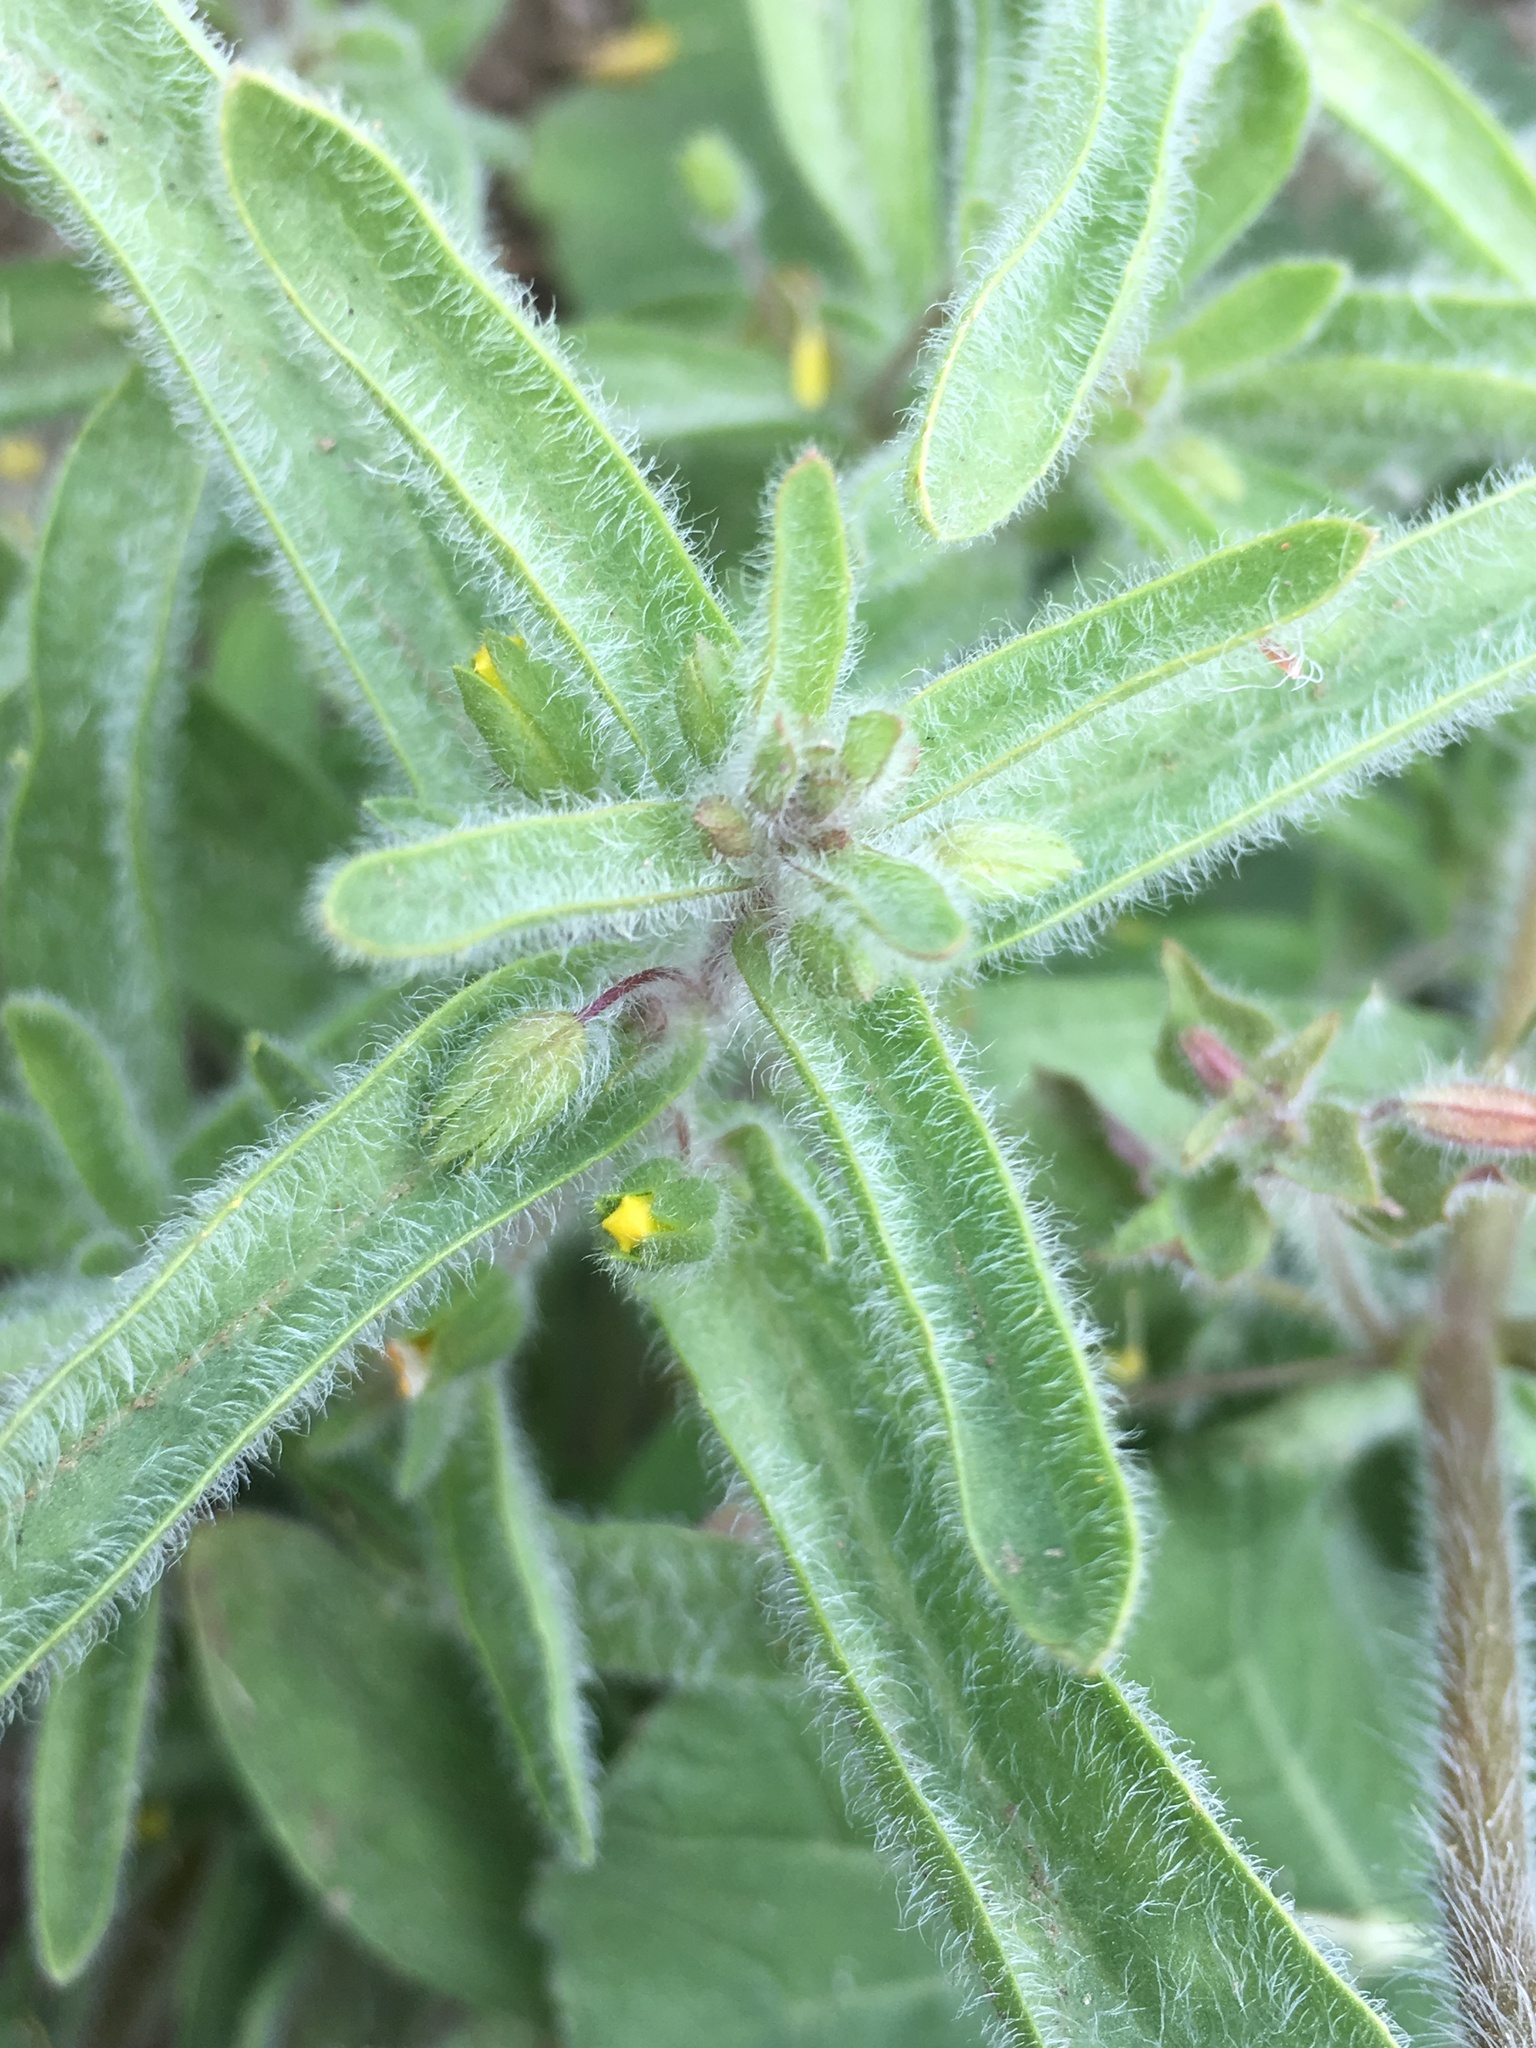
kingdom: Plantae
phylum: Tracheophyta
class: Magnoliopsida
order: Lamiales
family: Phrymaceae
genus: Mimetanthe
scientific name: Mimetanthe pilosa
